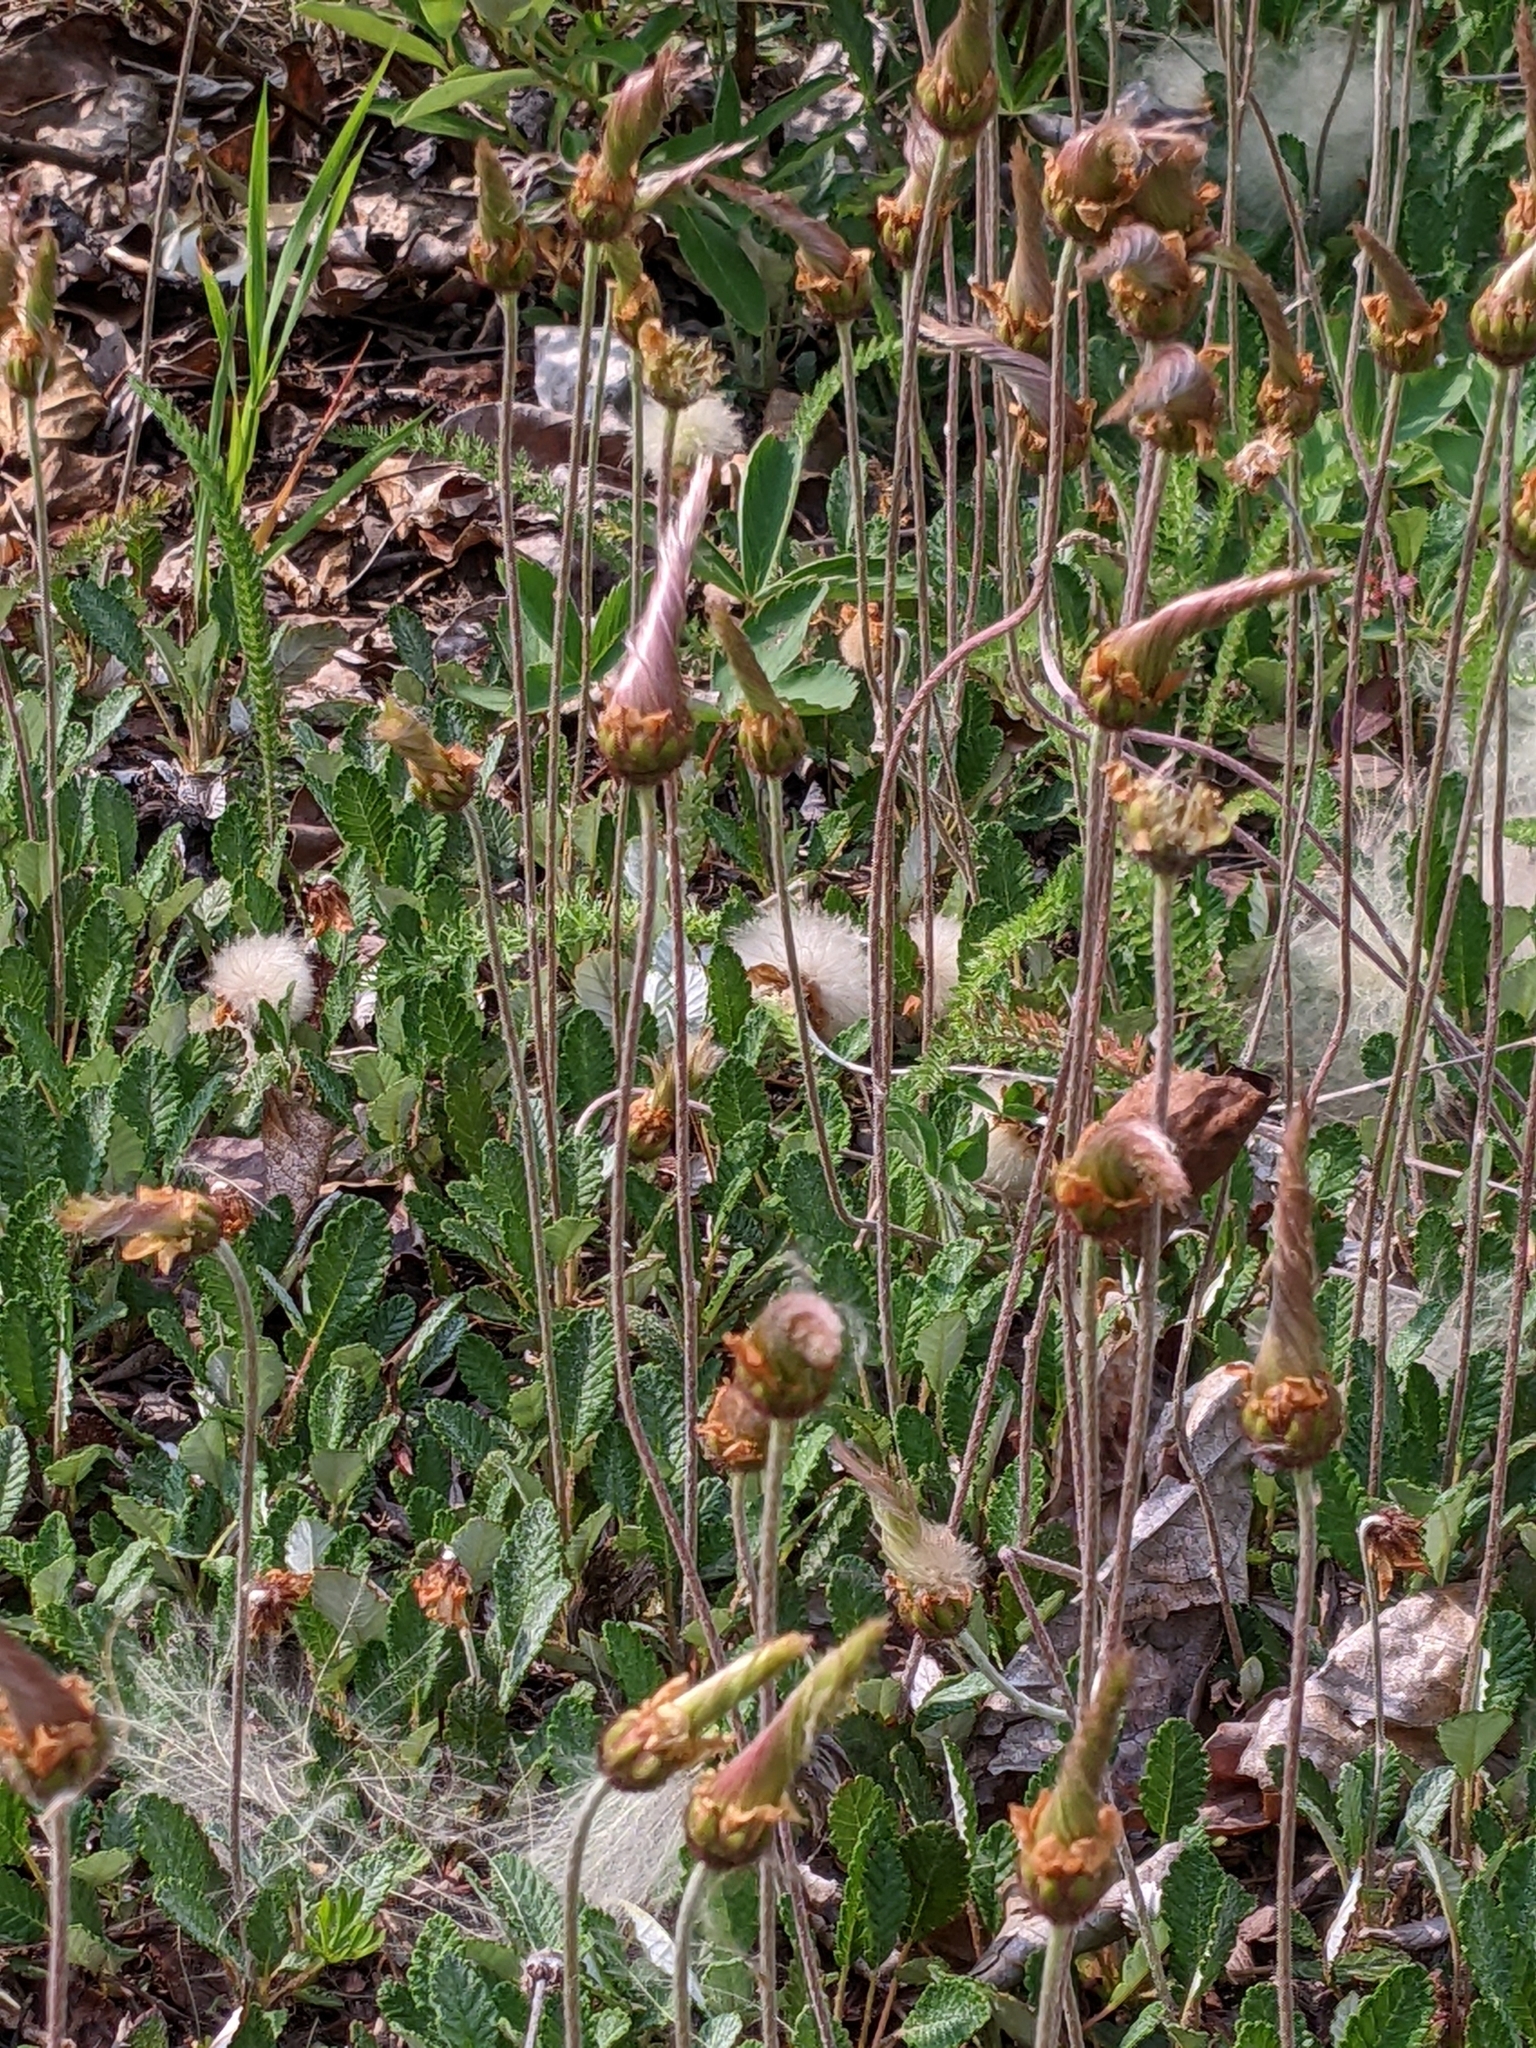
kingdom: Plantae
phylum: Tracheophyta
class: Magnoliopsida
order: Rosales
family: Rosaceae
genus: Dryas
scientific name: Dryas drummondii
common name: Drummond's dryad
